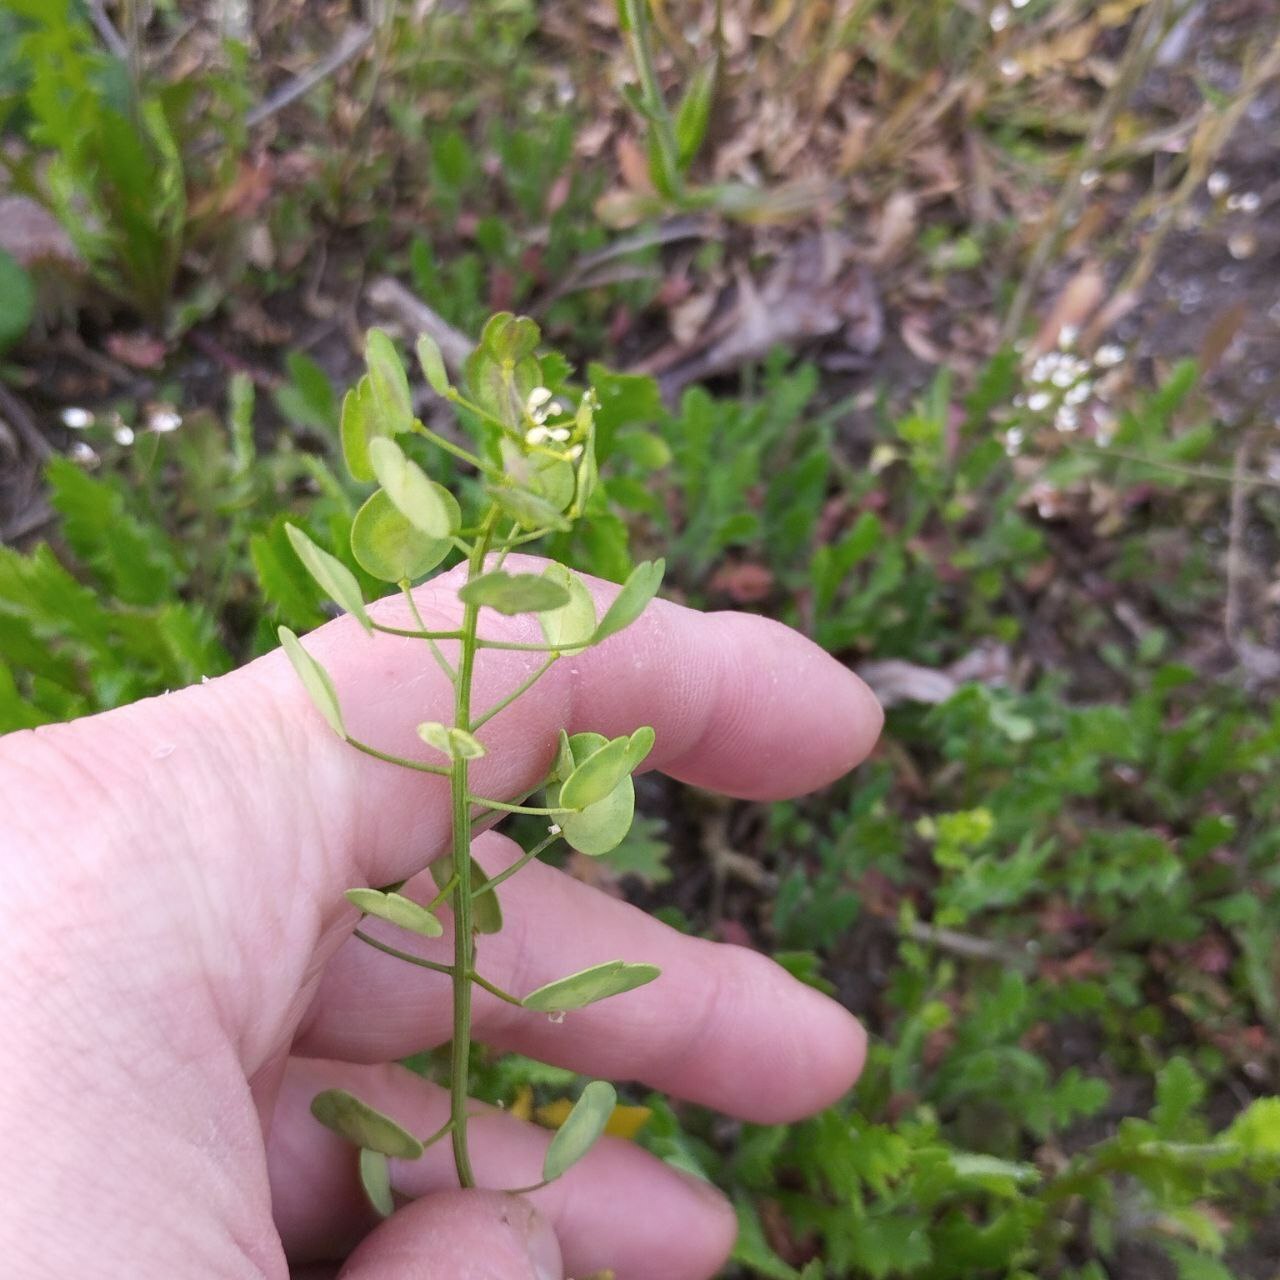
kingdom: Plantae
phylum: Tracheophyta
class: Magnoliopsida
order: Brassicales
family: Brassicaceae
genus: Thlaspi
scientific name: Thlaspi arvense
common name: Field pennycress
